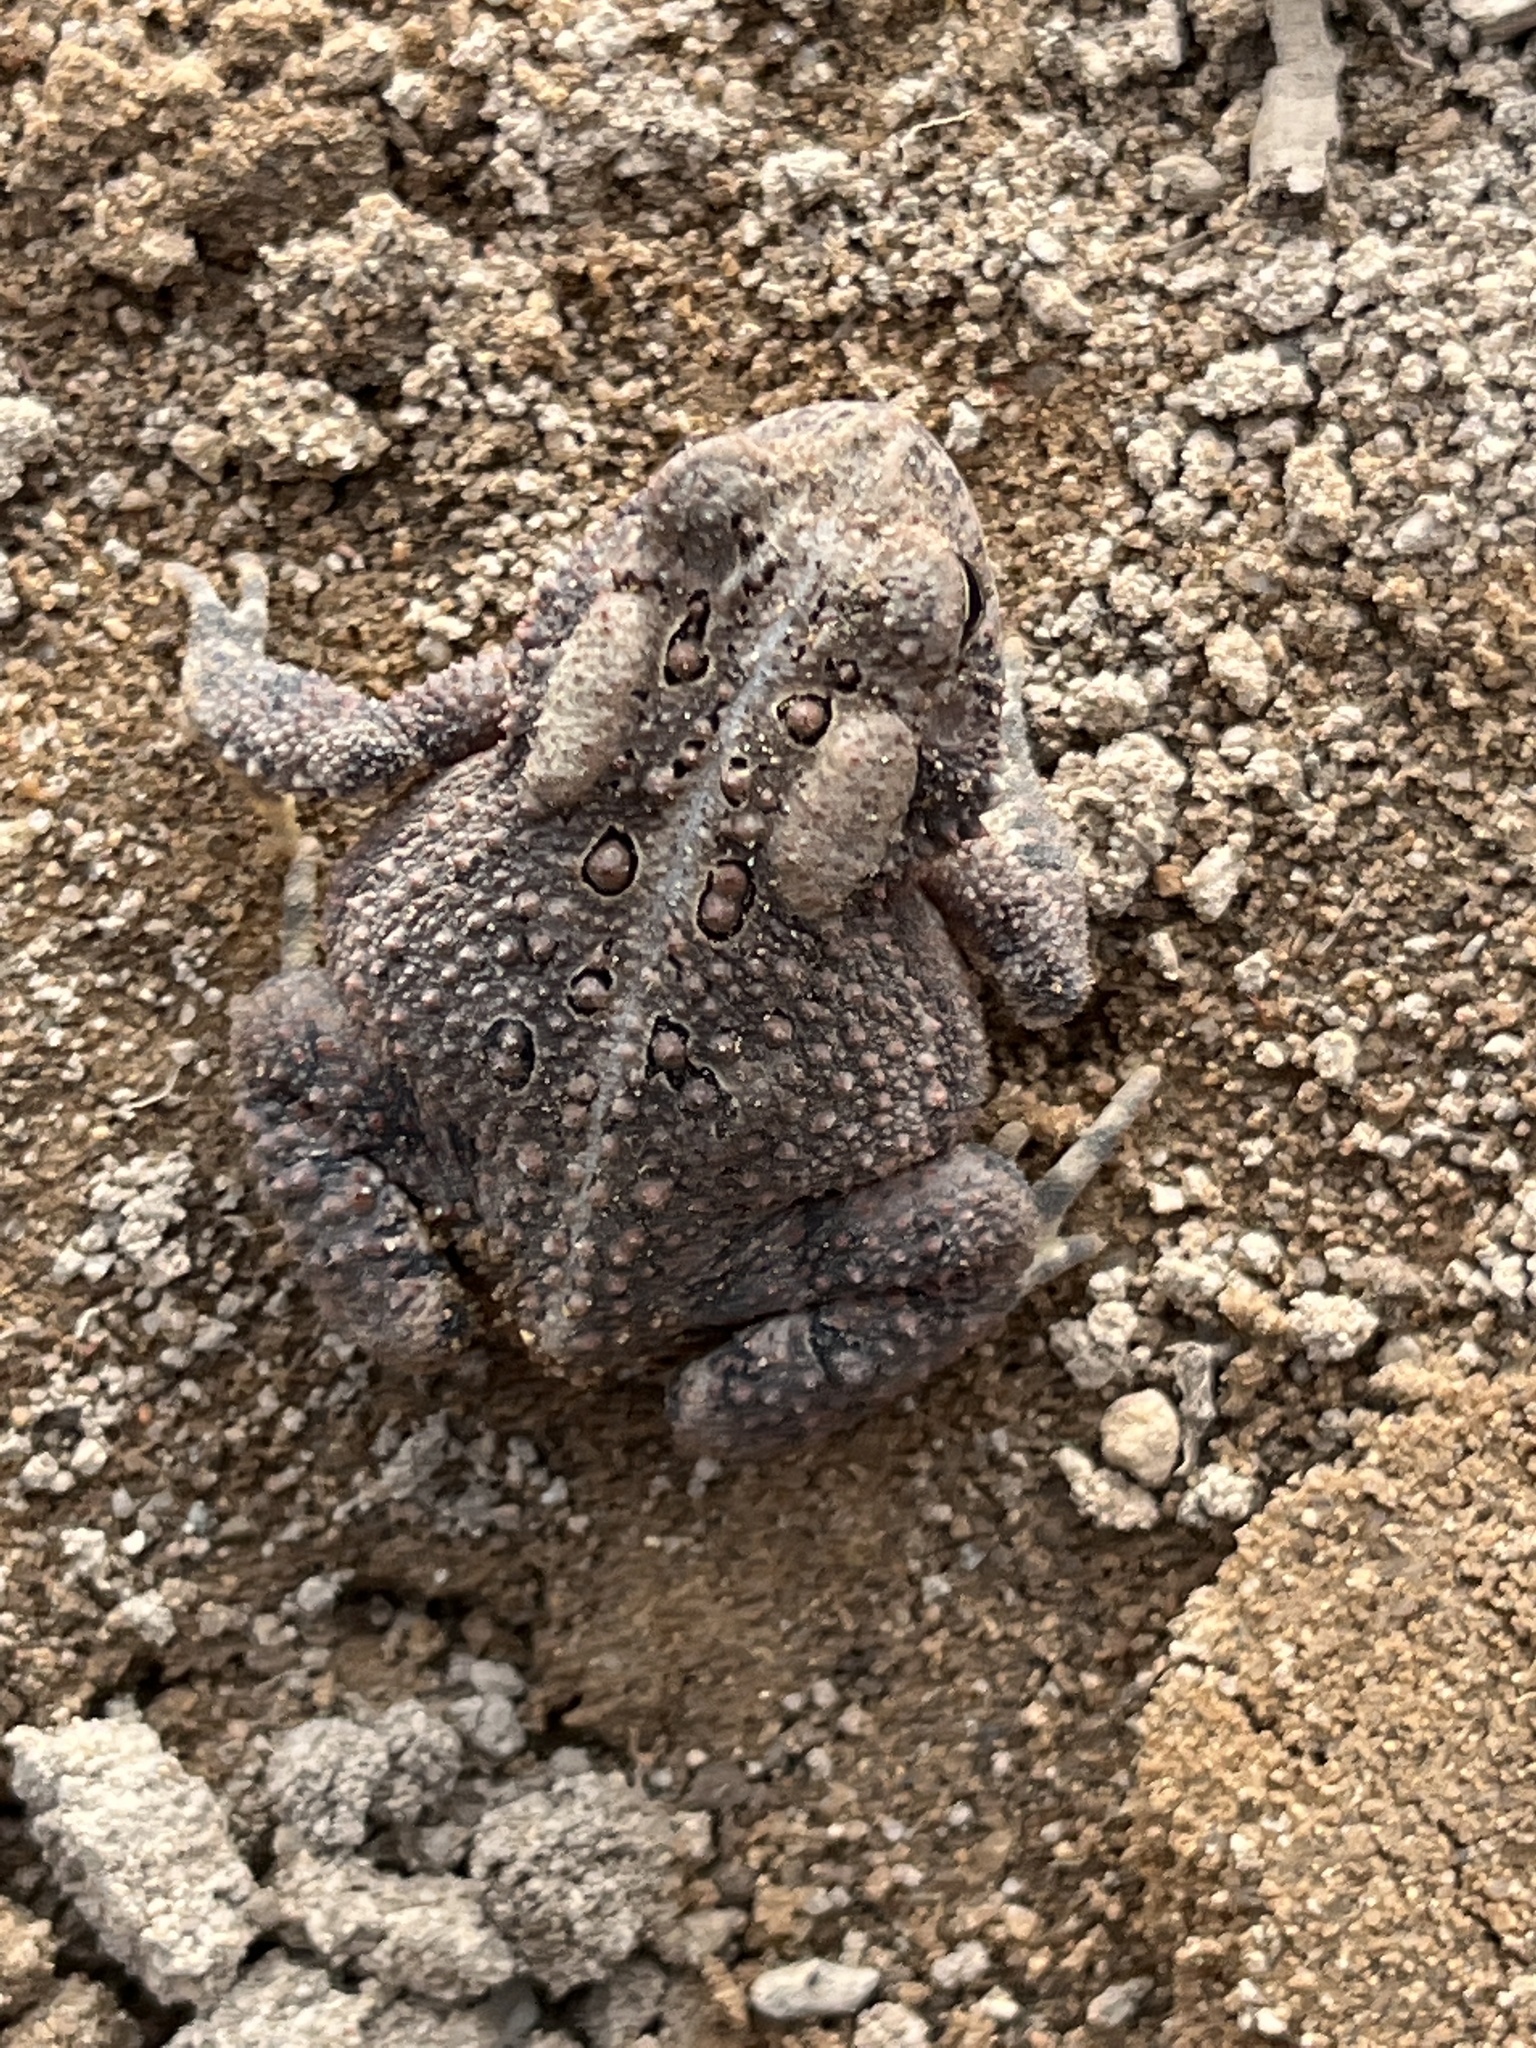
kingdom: Animalia
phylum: Chordata
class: Amphibia
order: Anura
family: Bufonidae
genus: Anaxyrus
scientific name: Anaxyrus americanus
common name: American toad
